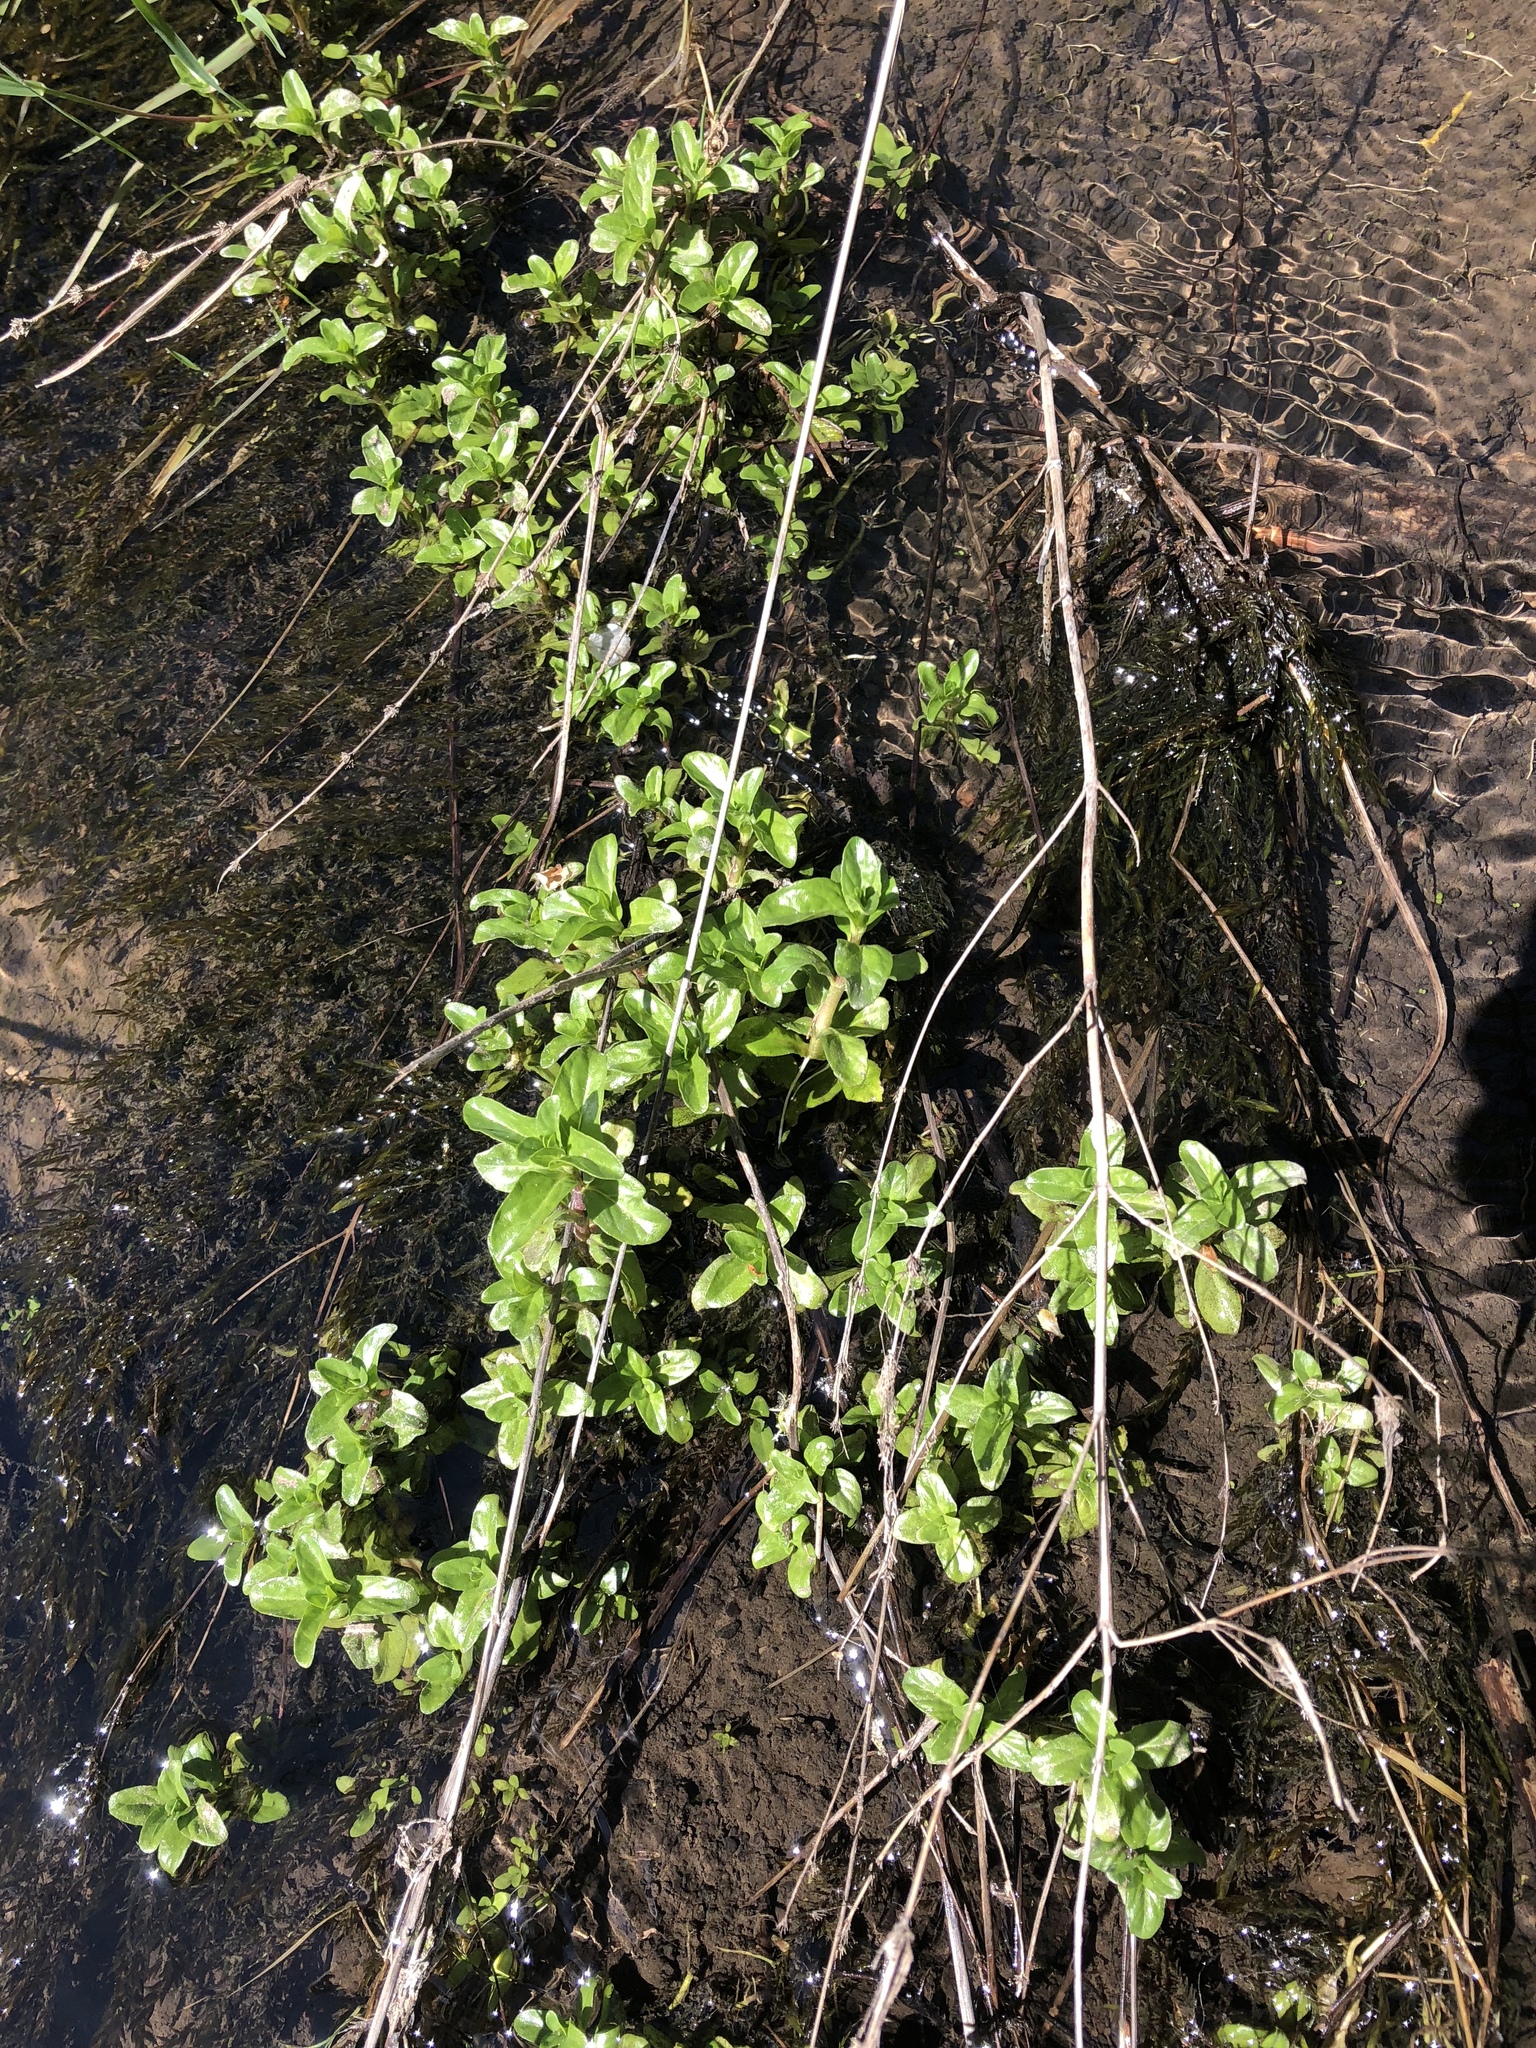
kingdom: Plantae
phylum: Tracheophyta
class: Magnoliopsida
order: Lamiales
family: Lamiaceae
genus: Mentha
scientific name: Mentha pulegium
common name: Pennyroyal
